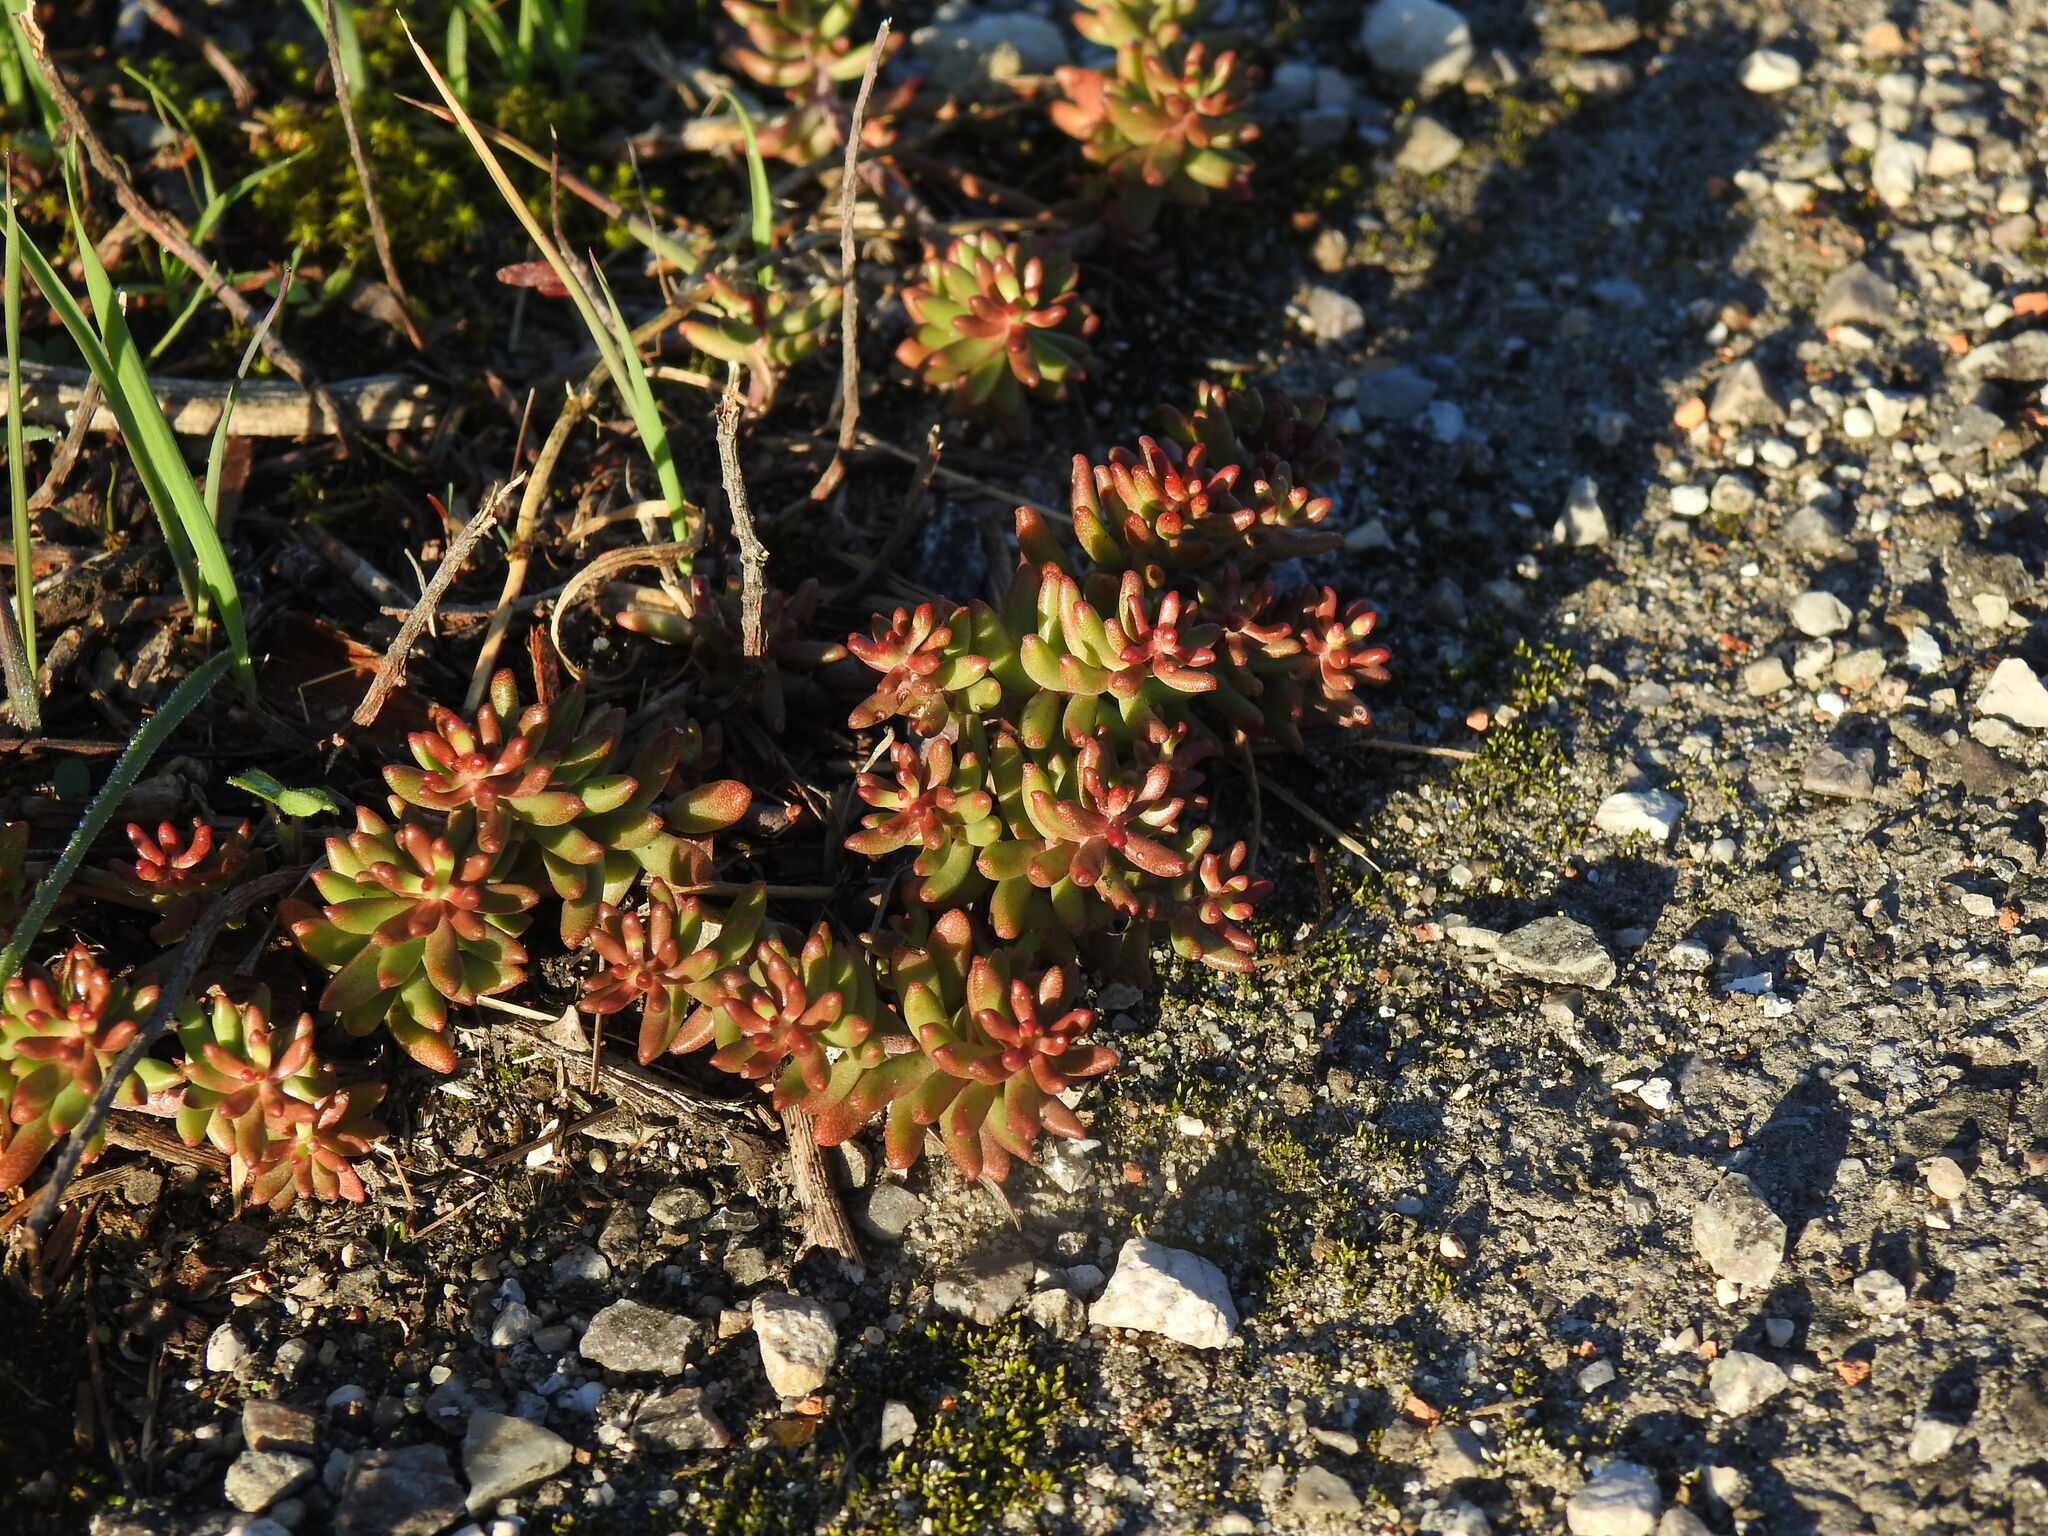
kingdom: Plantae
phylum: Tracheophyta
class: Magnoliopsida
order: Saxifragales
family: Crassulaceae
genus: Sedum
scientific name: Sedum album
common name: White stonecrop
